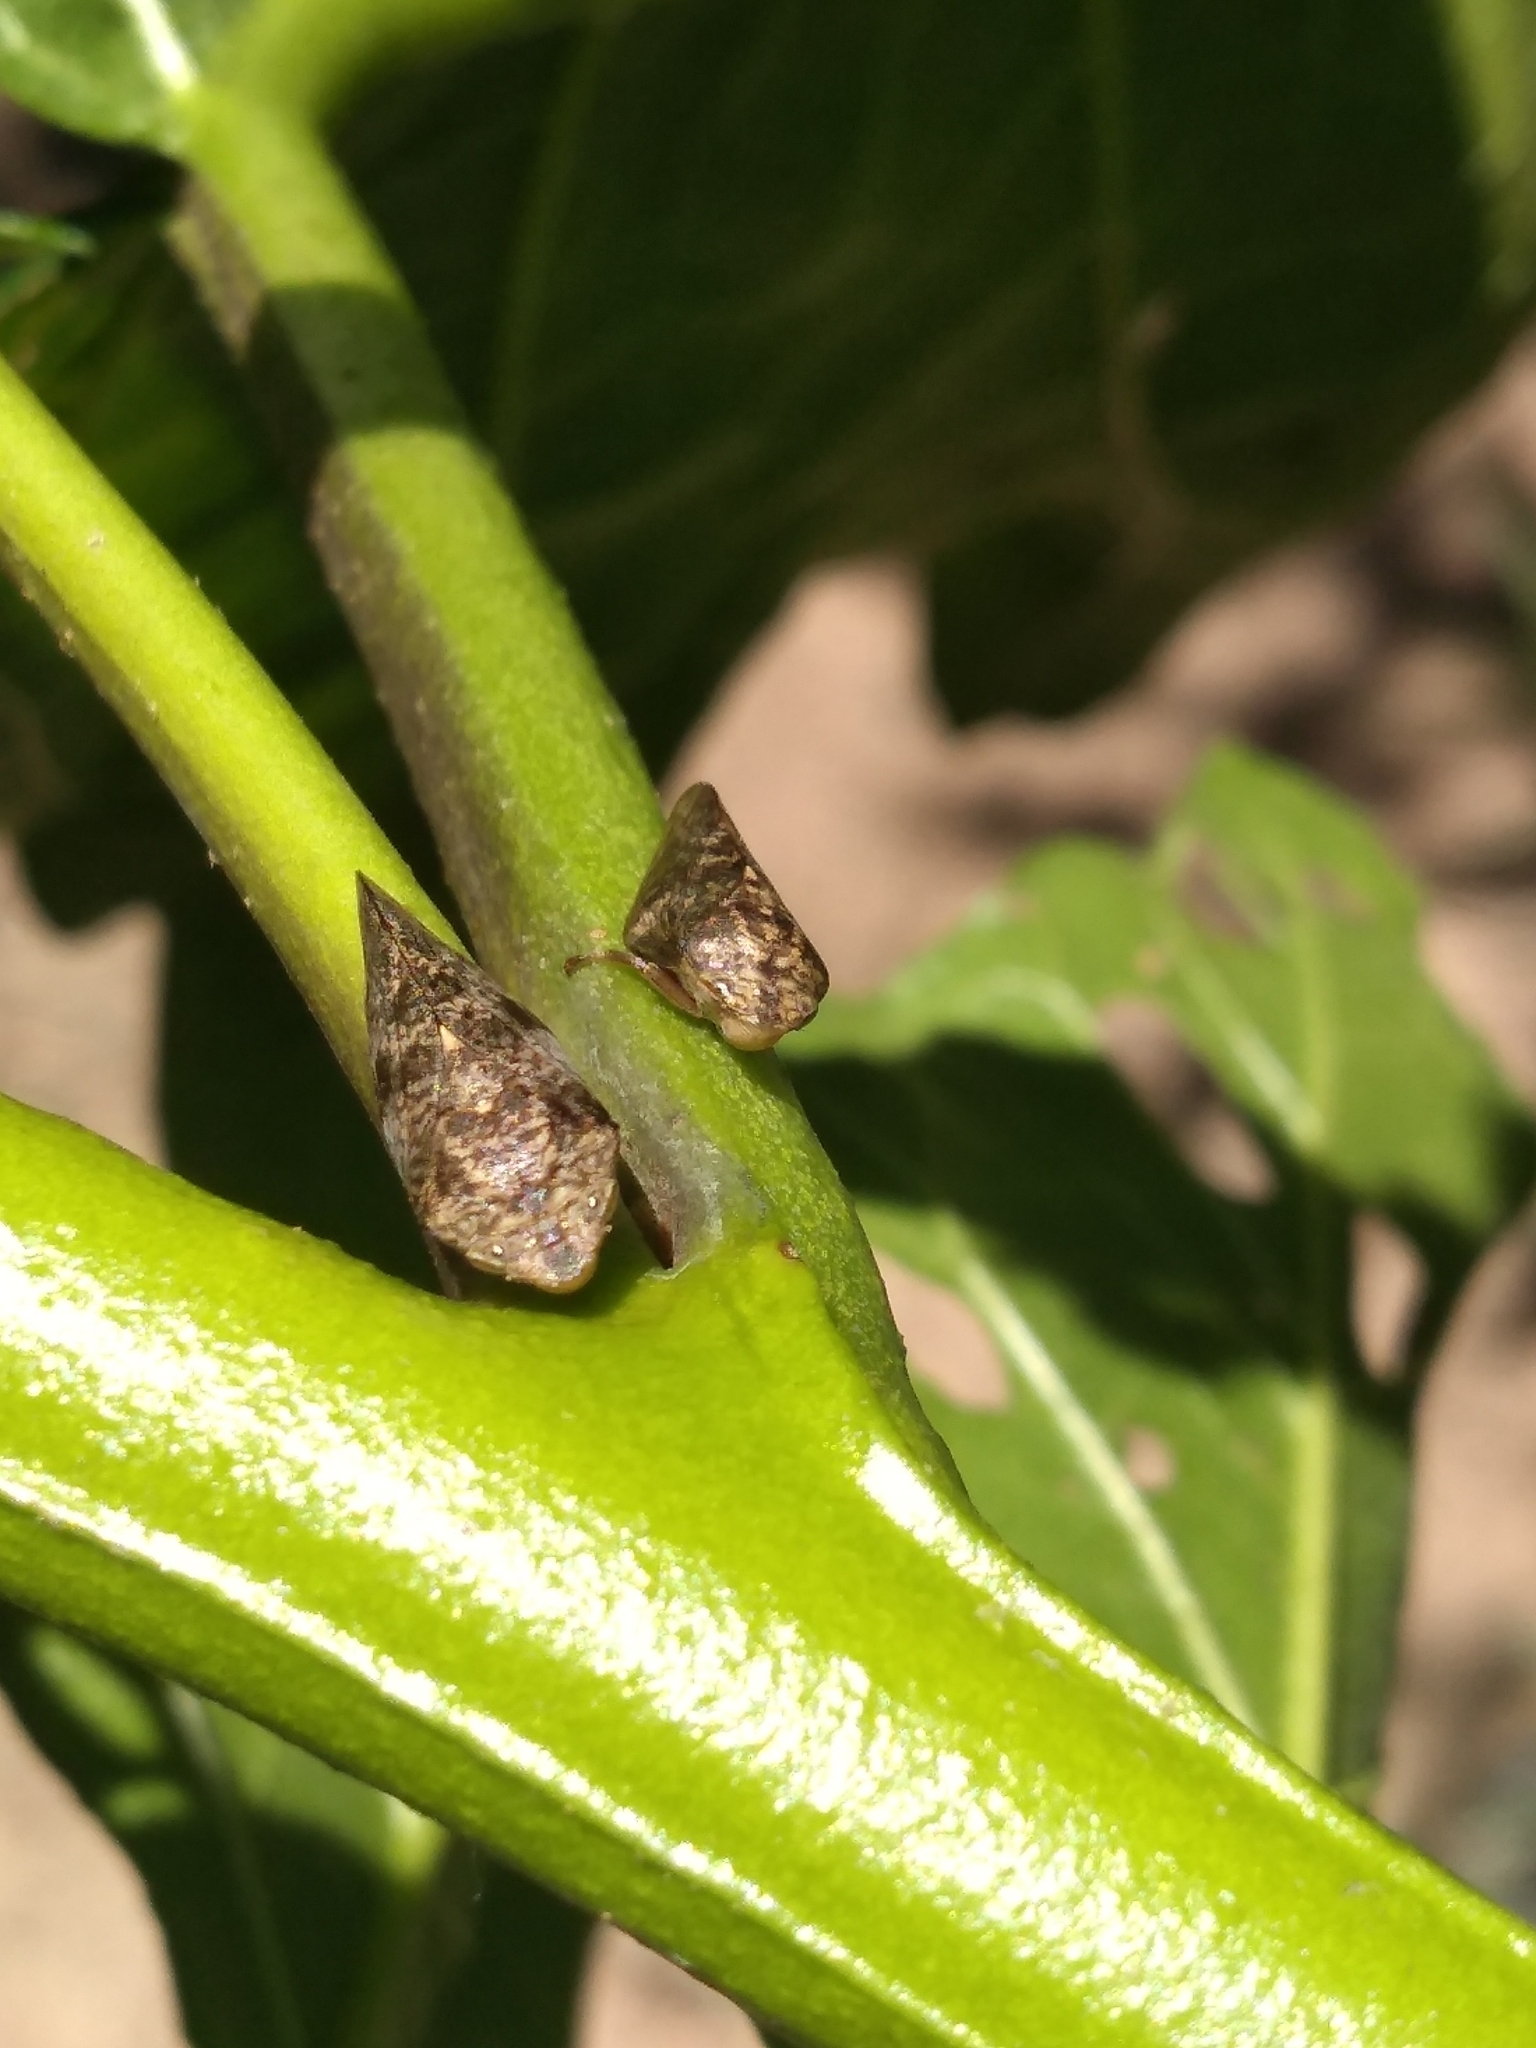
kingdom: Animalia
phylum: Arthropoda
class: Insecta
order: Hemiptera
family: Aphrophoridae
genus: Cephisus
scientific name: Cephisus siccifolius
